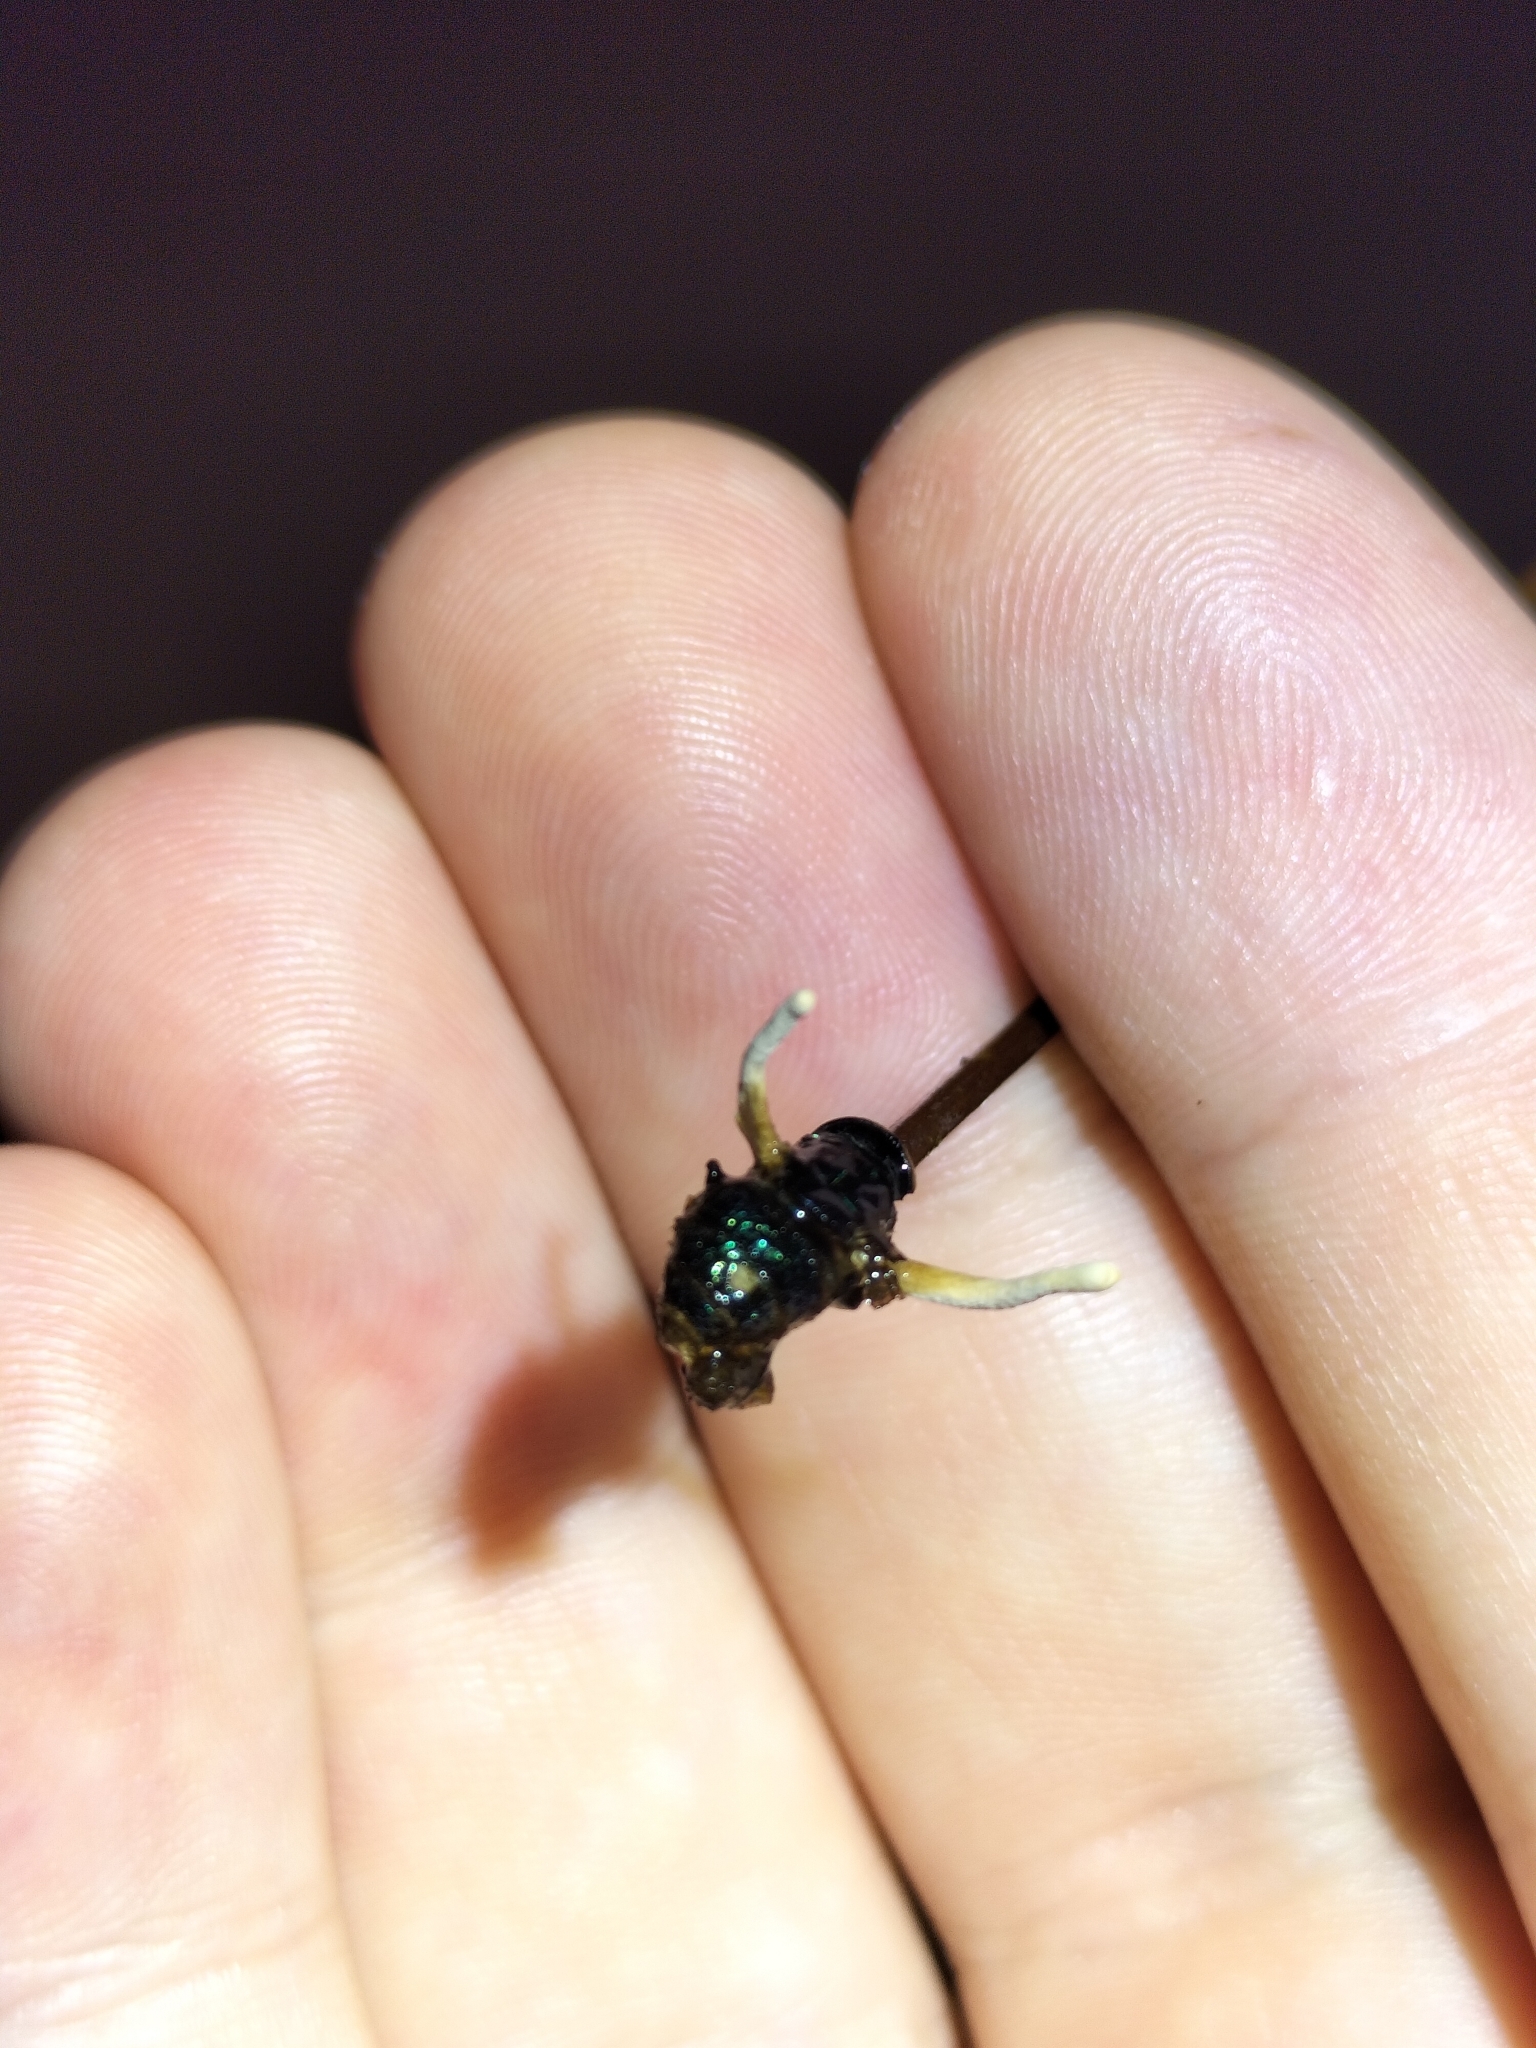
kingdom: Fungi
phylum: Ascomycota
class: Sordariomycetes
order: Hypocreales
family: Ophiocordycipitaceae
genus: Ophiocordyceps
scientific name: Ophiocordyceps dipterigena
